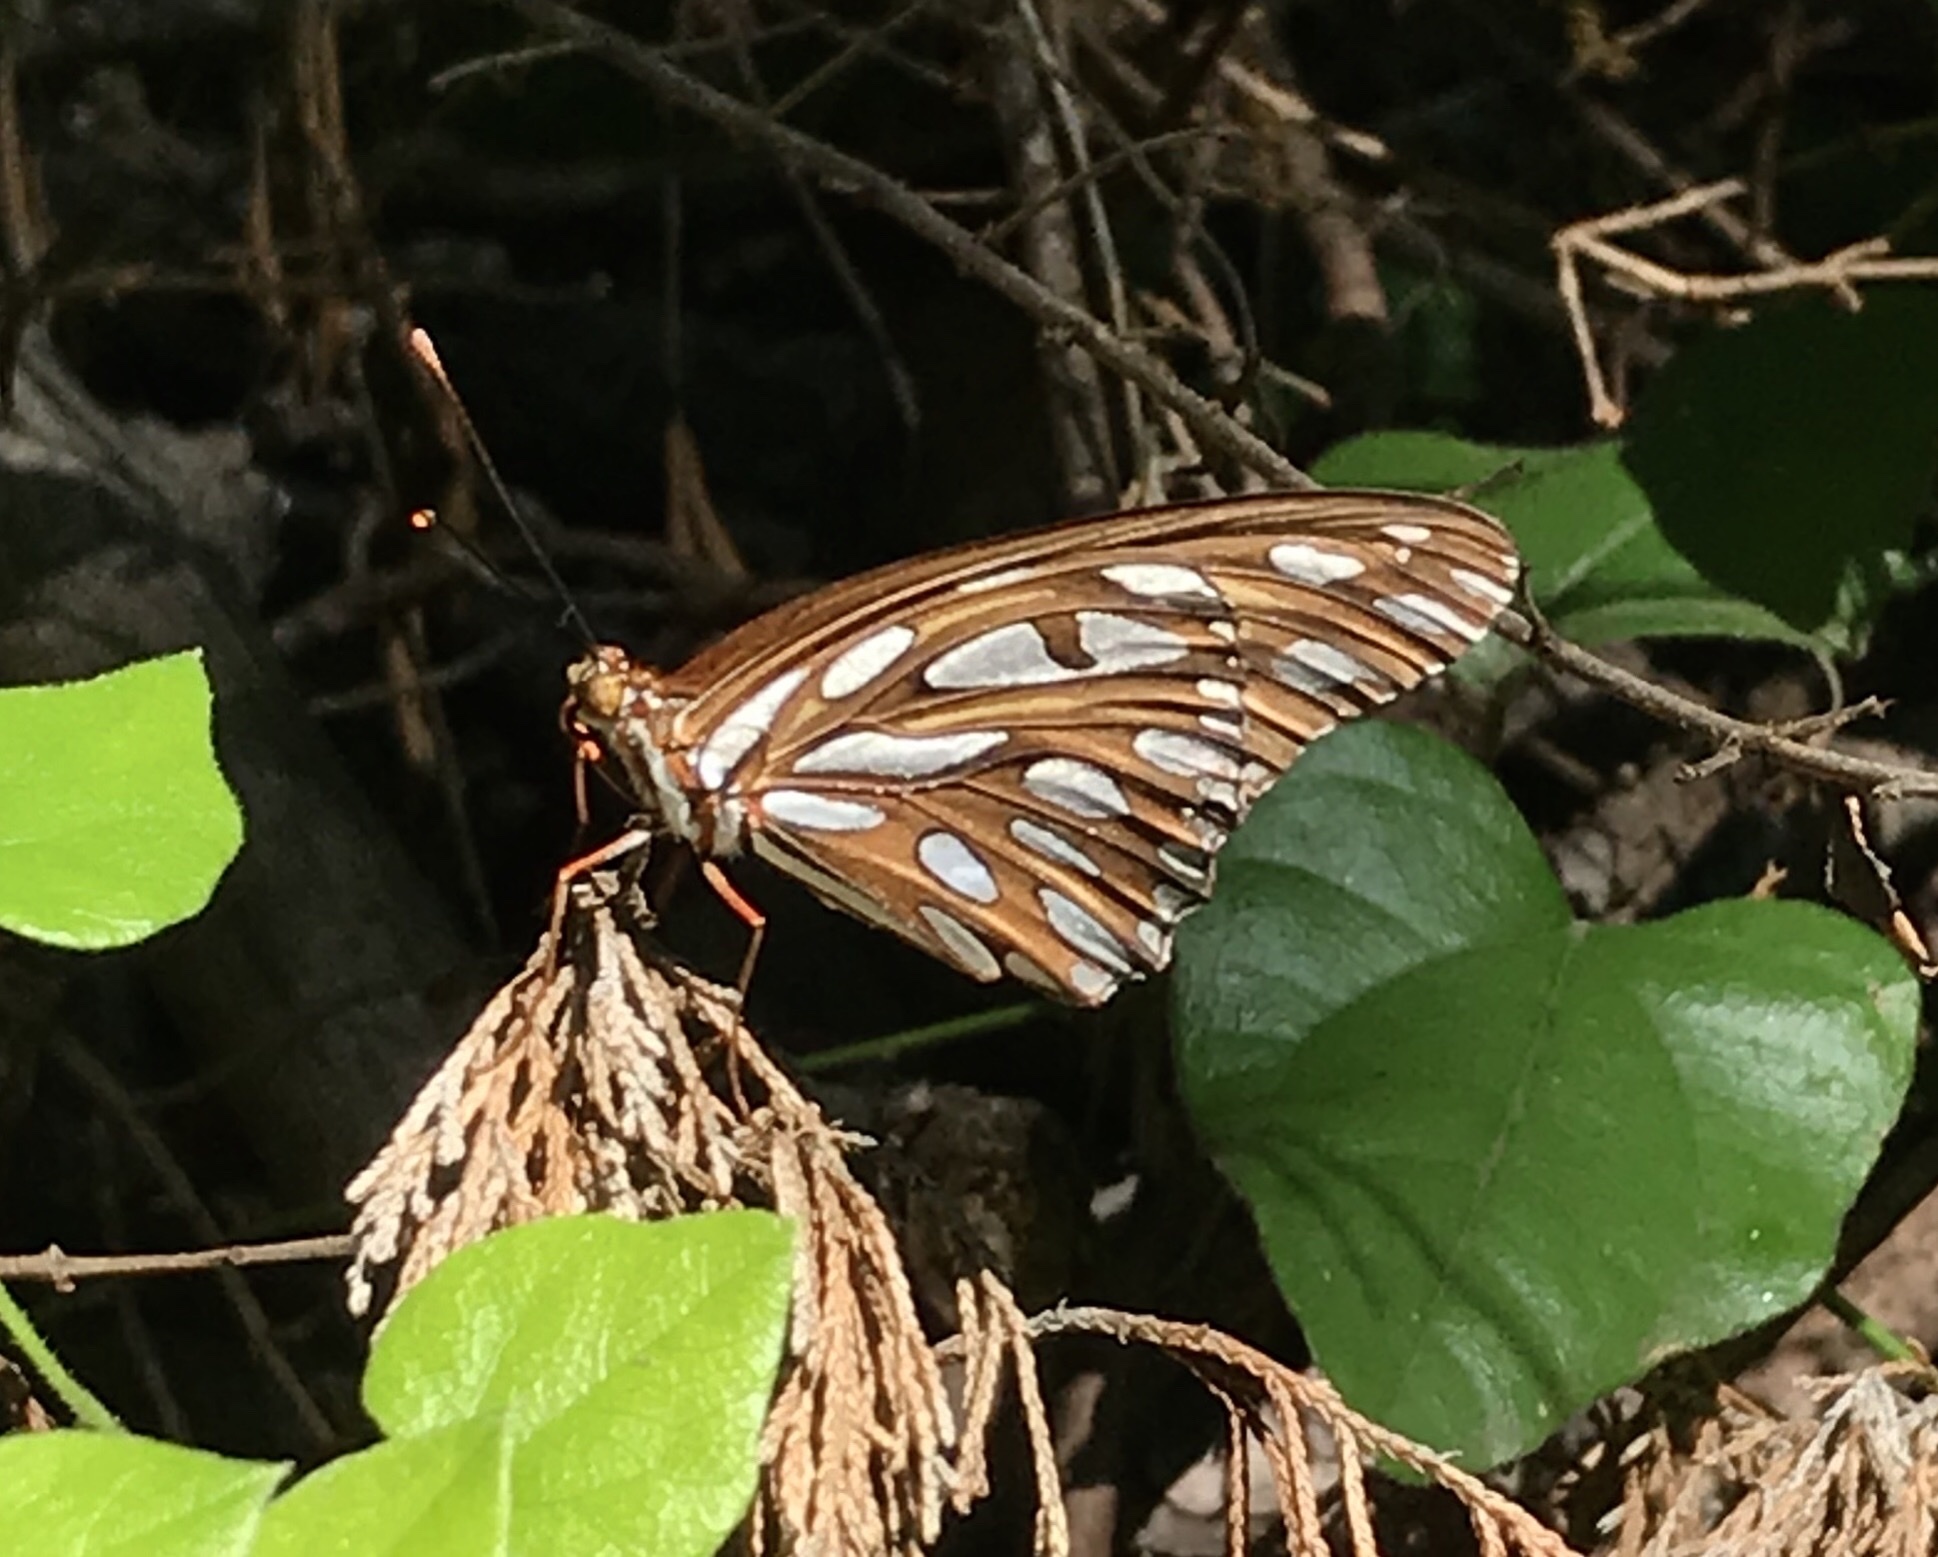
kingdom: Animalia
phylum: Arthropoda
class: Insecta
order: Lepidoptera
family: Nymphalidae
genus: Dione
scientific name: Dione vanillae
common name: Gulf fritillary
